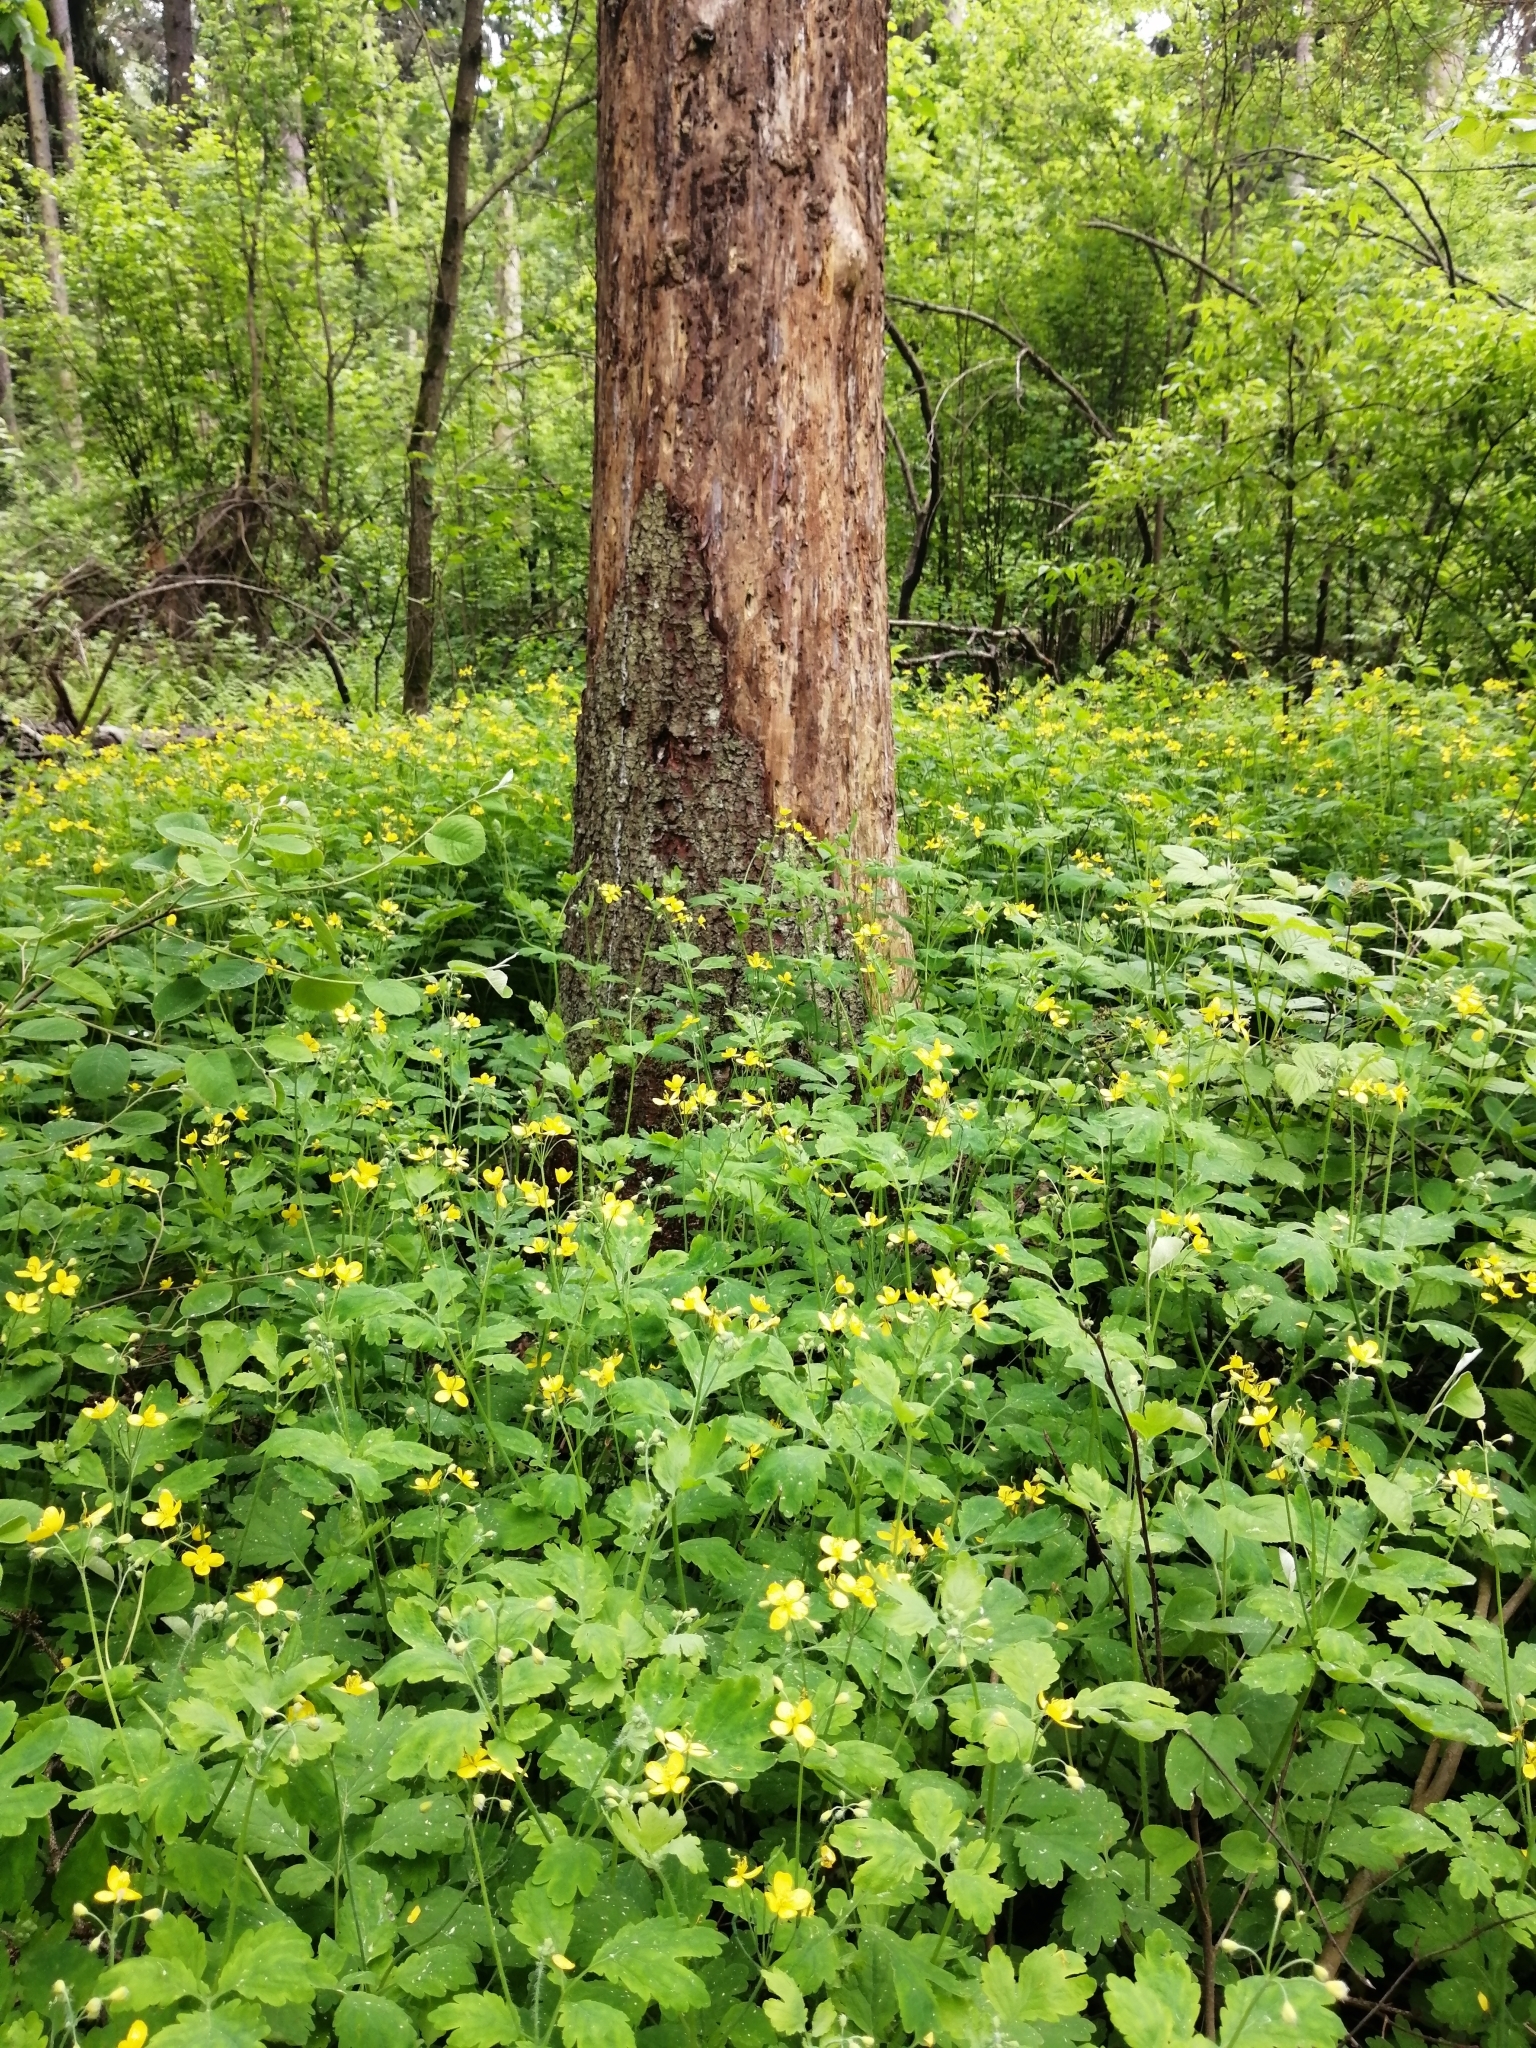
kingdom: Plantae
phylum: Tracheophyta
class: Magnoliopsida
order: Ranunculales
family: Papaveraceae
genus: Chelidonium
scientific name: Chelidonium majus
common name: Greater celandine
